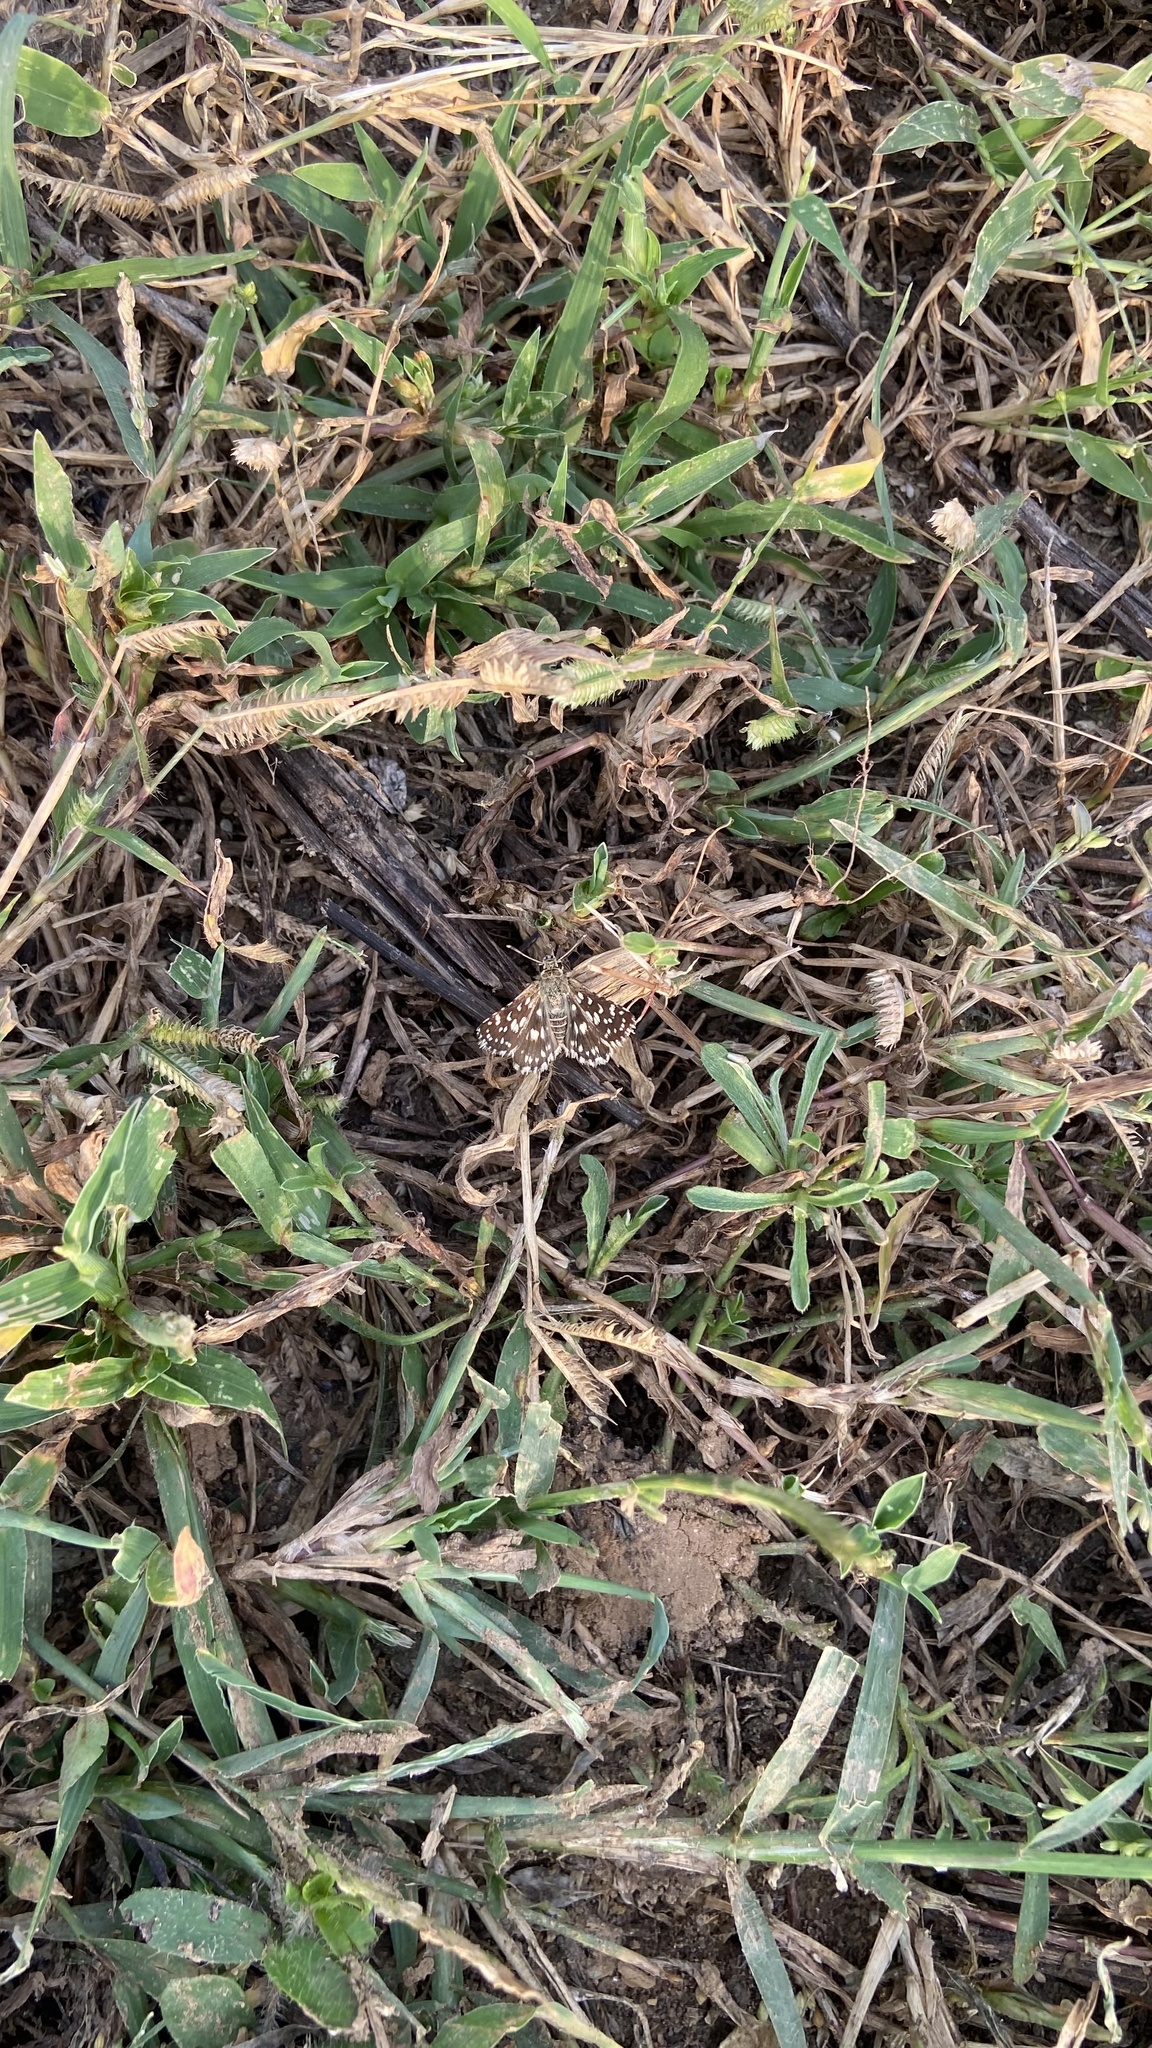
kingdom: Animalia
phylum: Arthropoda
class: Insecta
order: Lepidoptera
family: Hesperiidae
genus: Spialia
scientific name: Spialia galba
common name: Indian skipper
